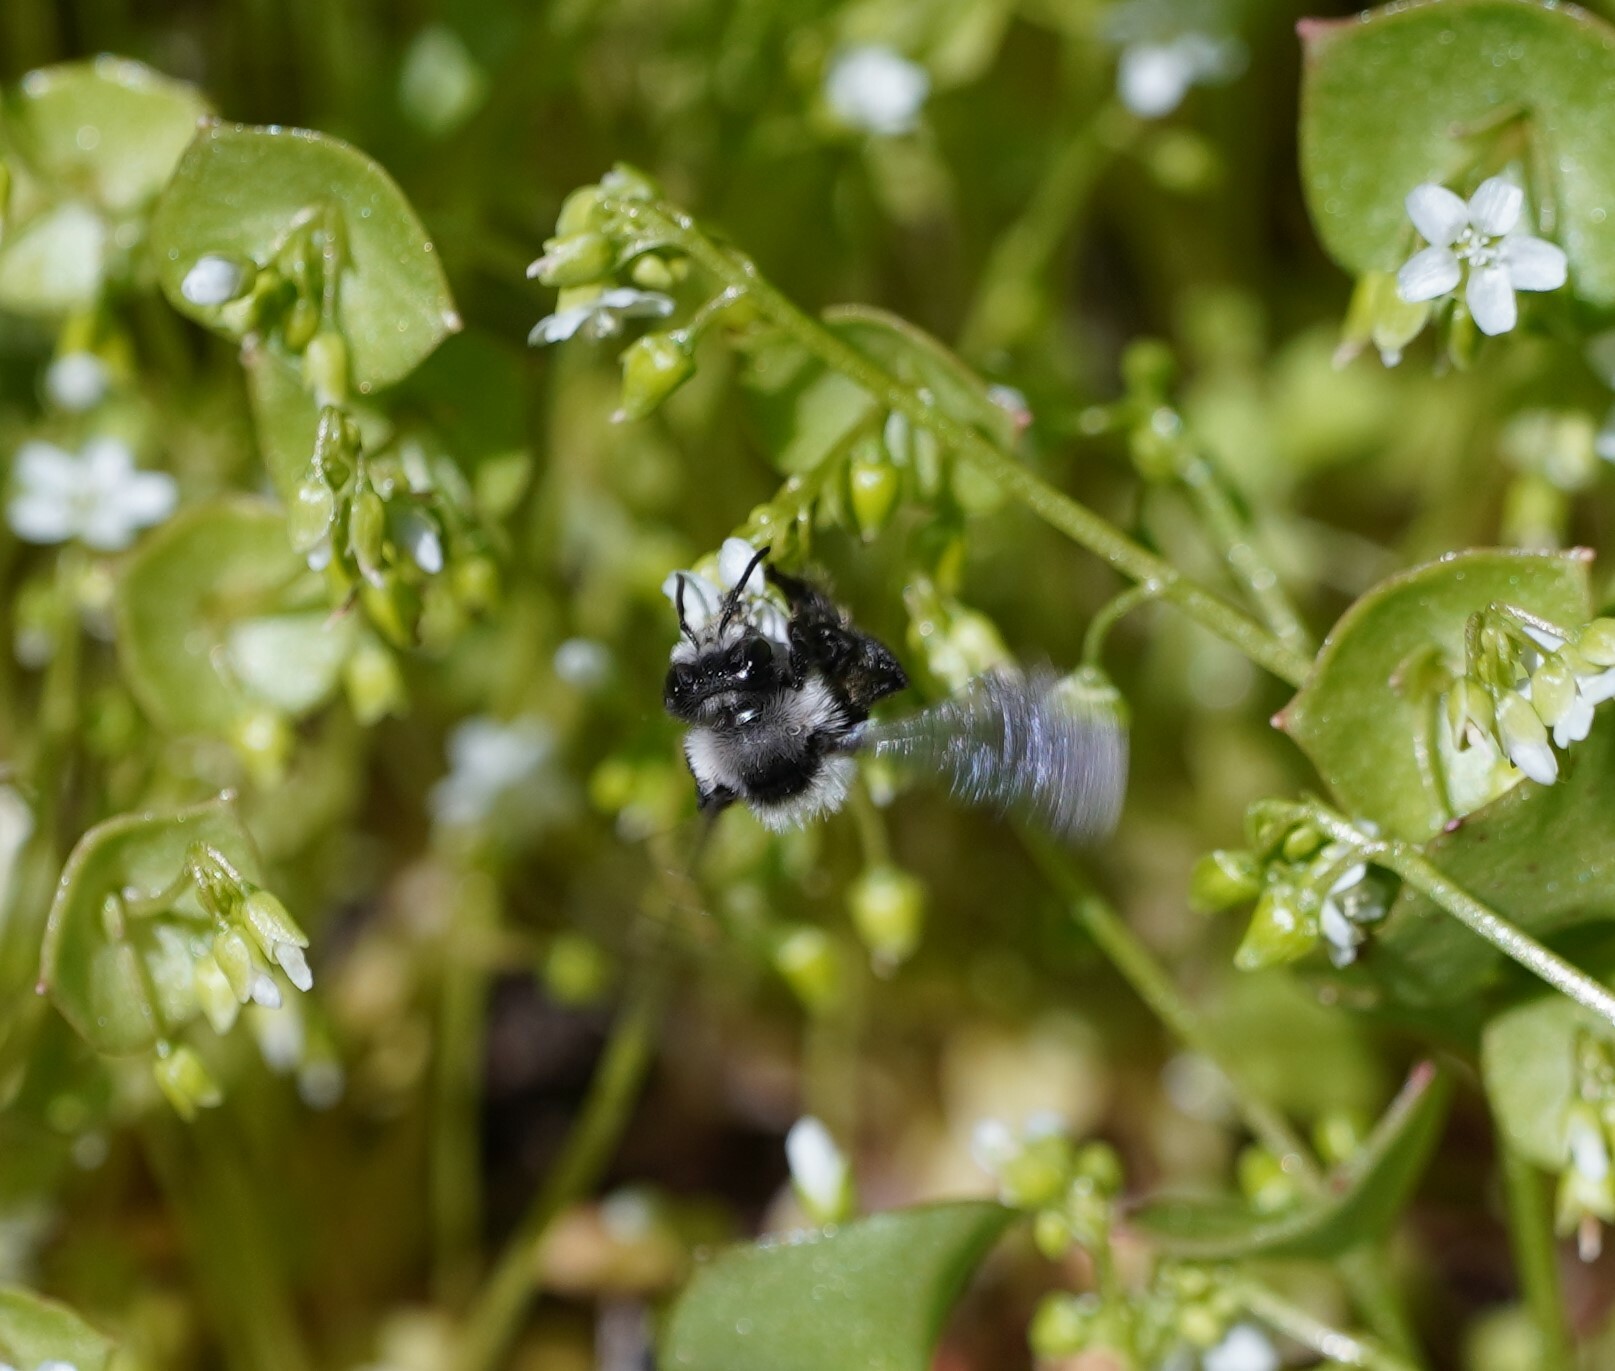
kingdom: Animalia
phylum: Arthropoda
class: Insecta
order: Hymenoptera
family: Andrenidae
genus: Andrena
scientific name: Andrena cineraria
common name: Ashy mining bee
